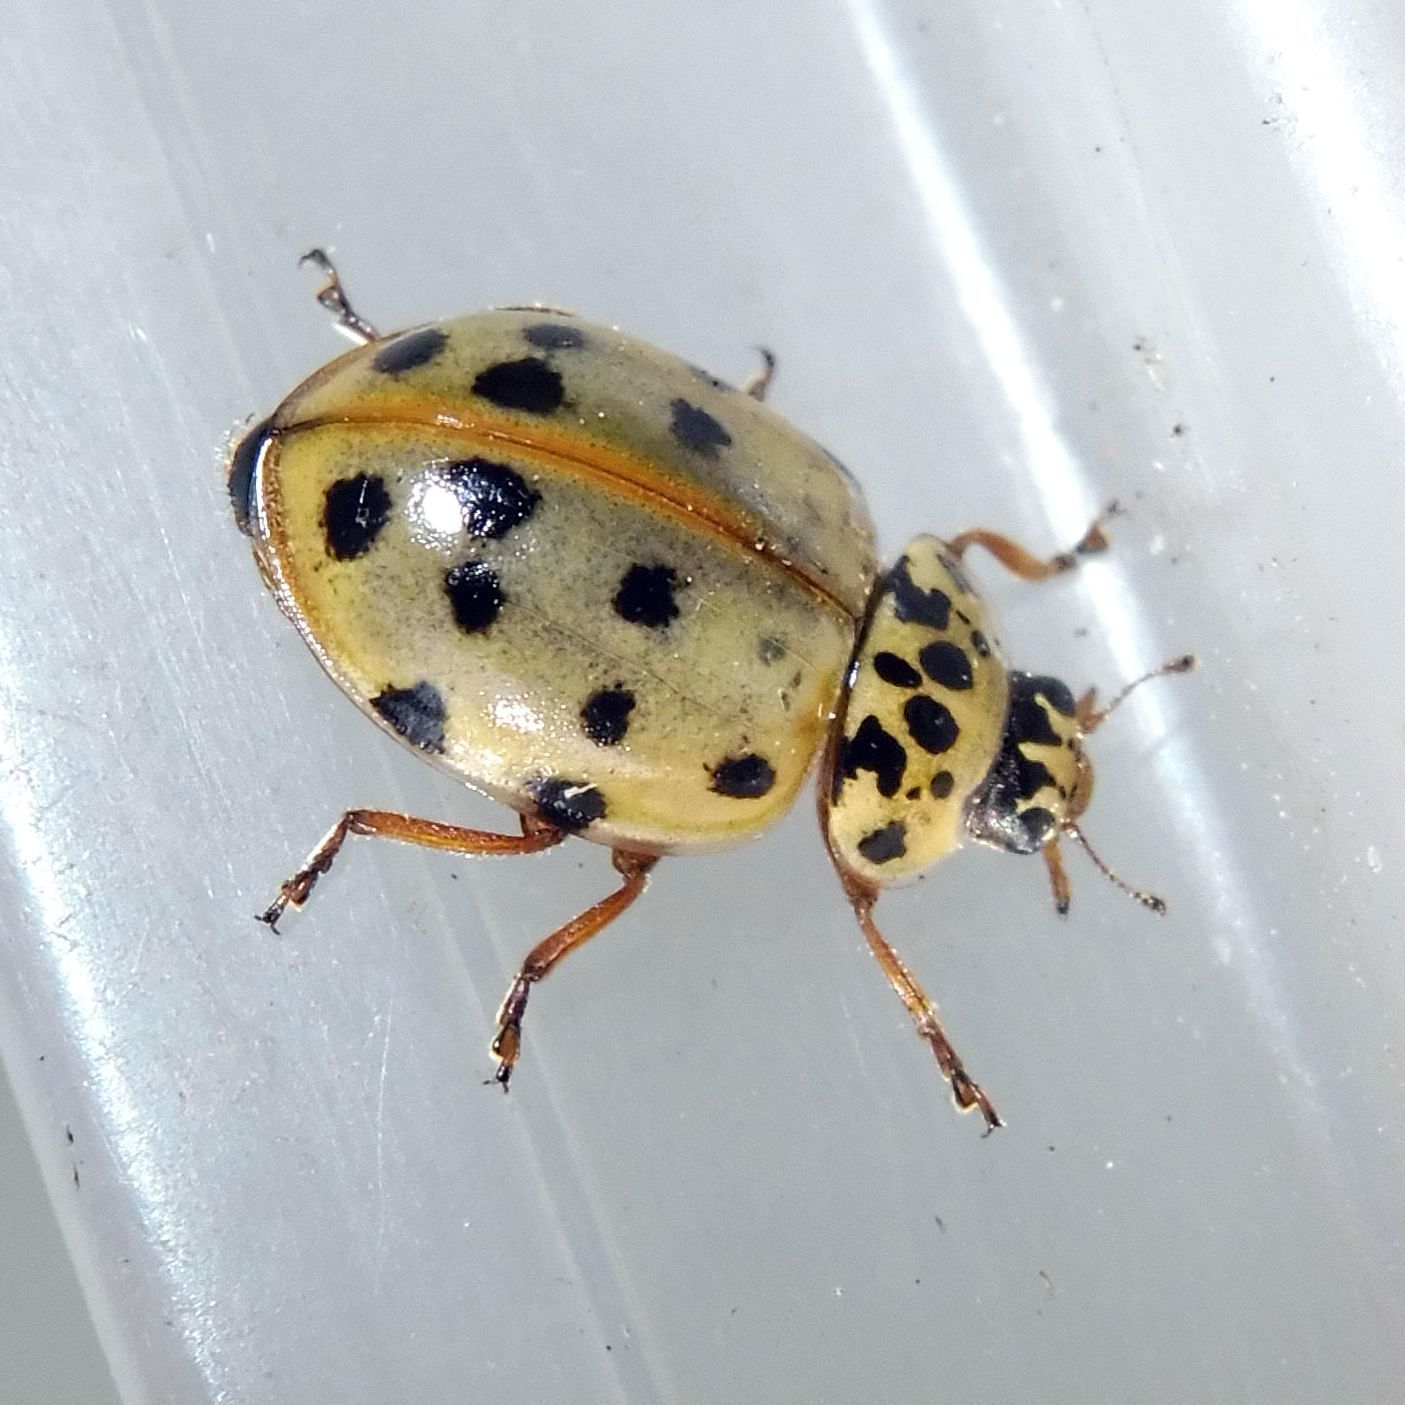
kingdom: Animalia
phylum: Arthropoda
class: Insecta
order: Coleoptera
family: Coccinellidae
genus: Harmonia
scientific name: Harmonia quadripunctata
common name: Cream-streaked ladybird
